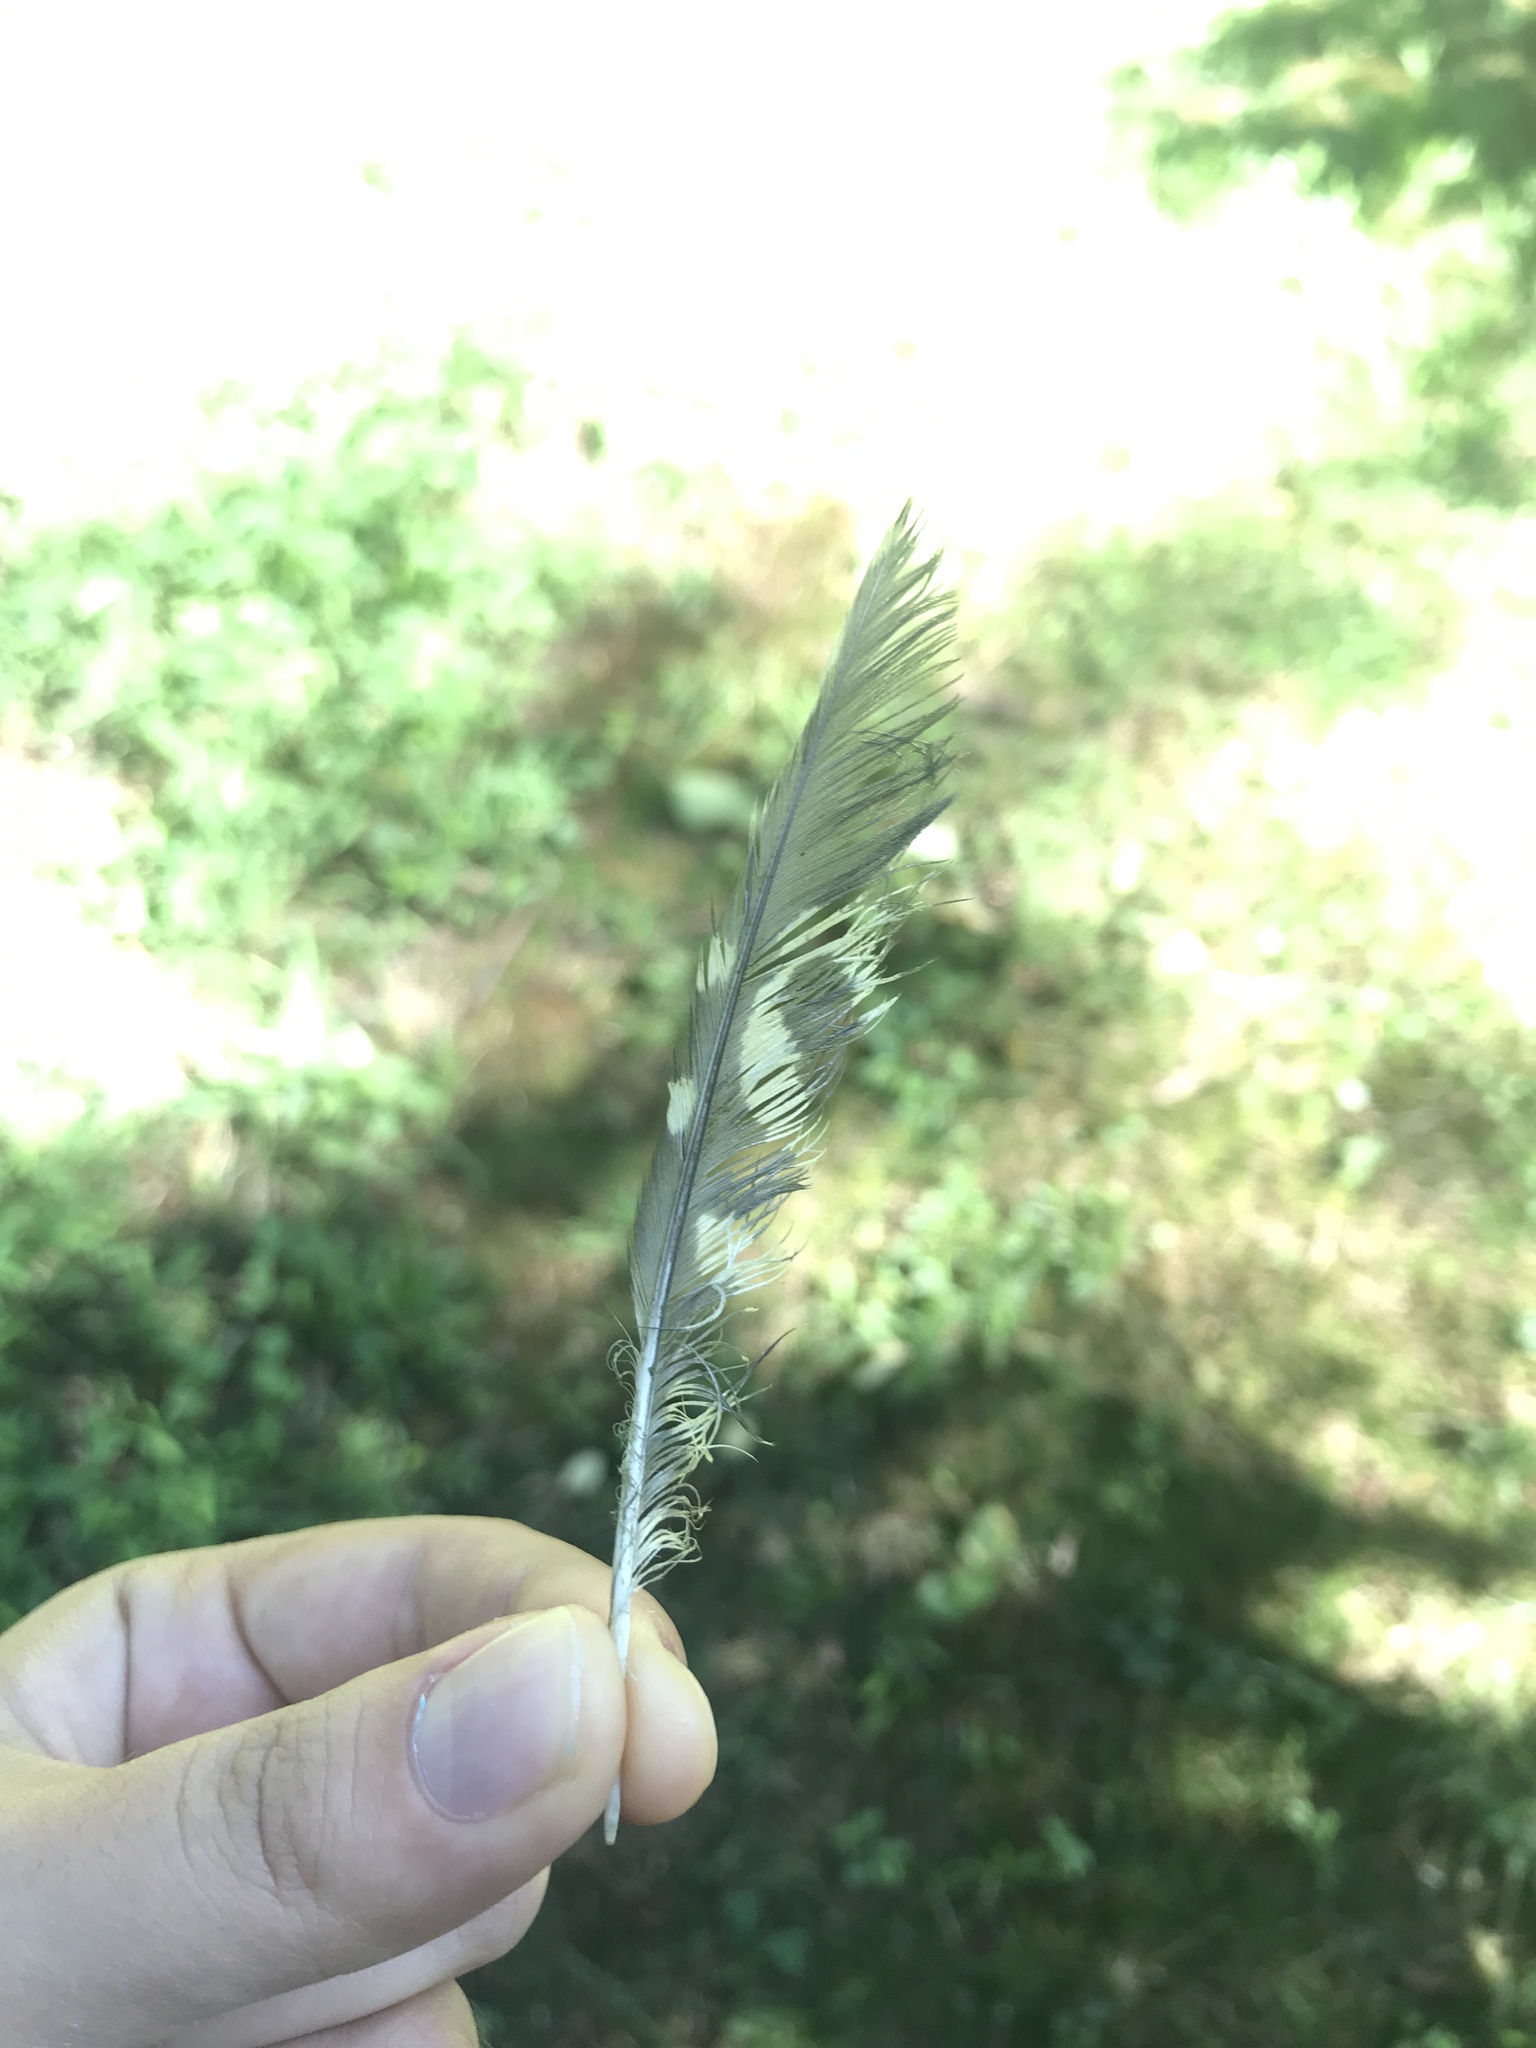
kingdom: Animalia
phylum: Chordata
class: Aves
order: Piciformes
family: Picidae
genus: Melanerpes
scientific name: Melanerpes carolinus
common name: Red-bellied woodpecker
